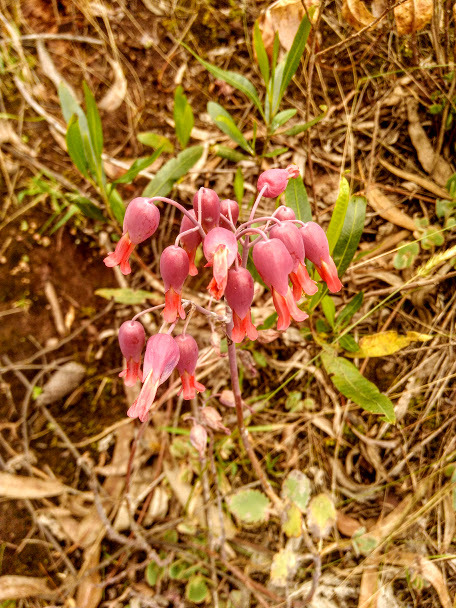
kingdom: Plantae
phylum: Tracheophyta
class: Magnoliopsida
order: Saxifragales
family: Crassulaceae
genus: Kalanchoe
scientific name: Kalanchoe laxiflora
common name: Milky widow's thrill
